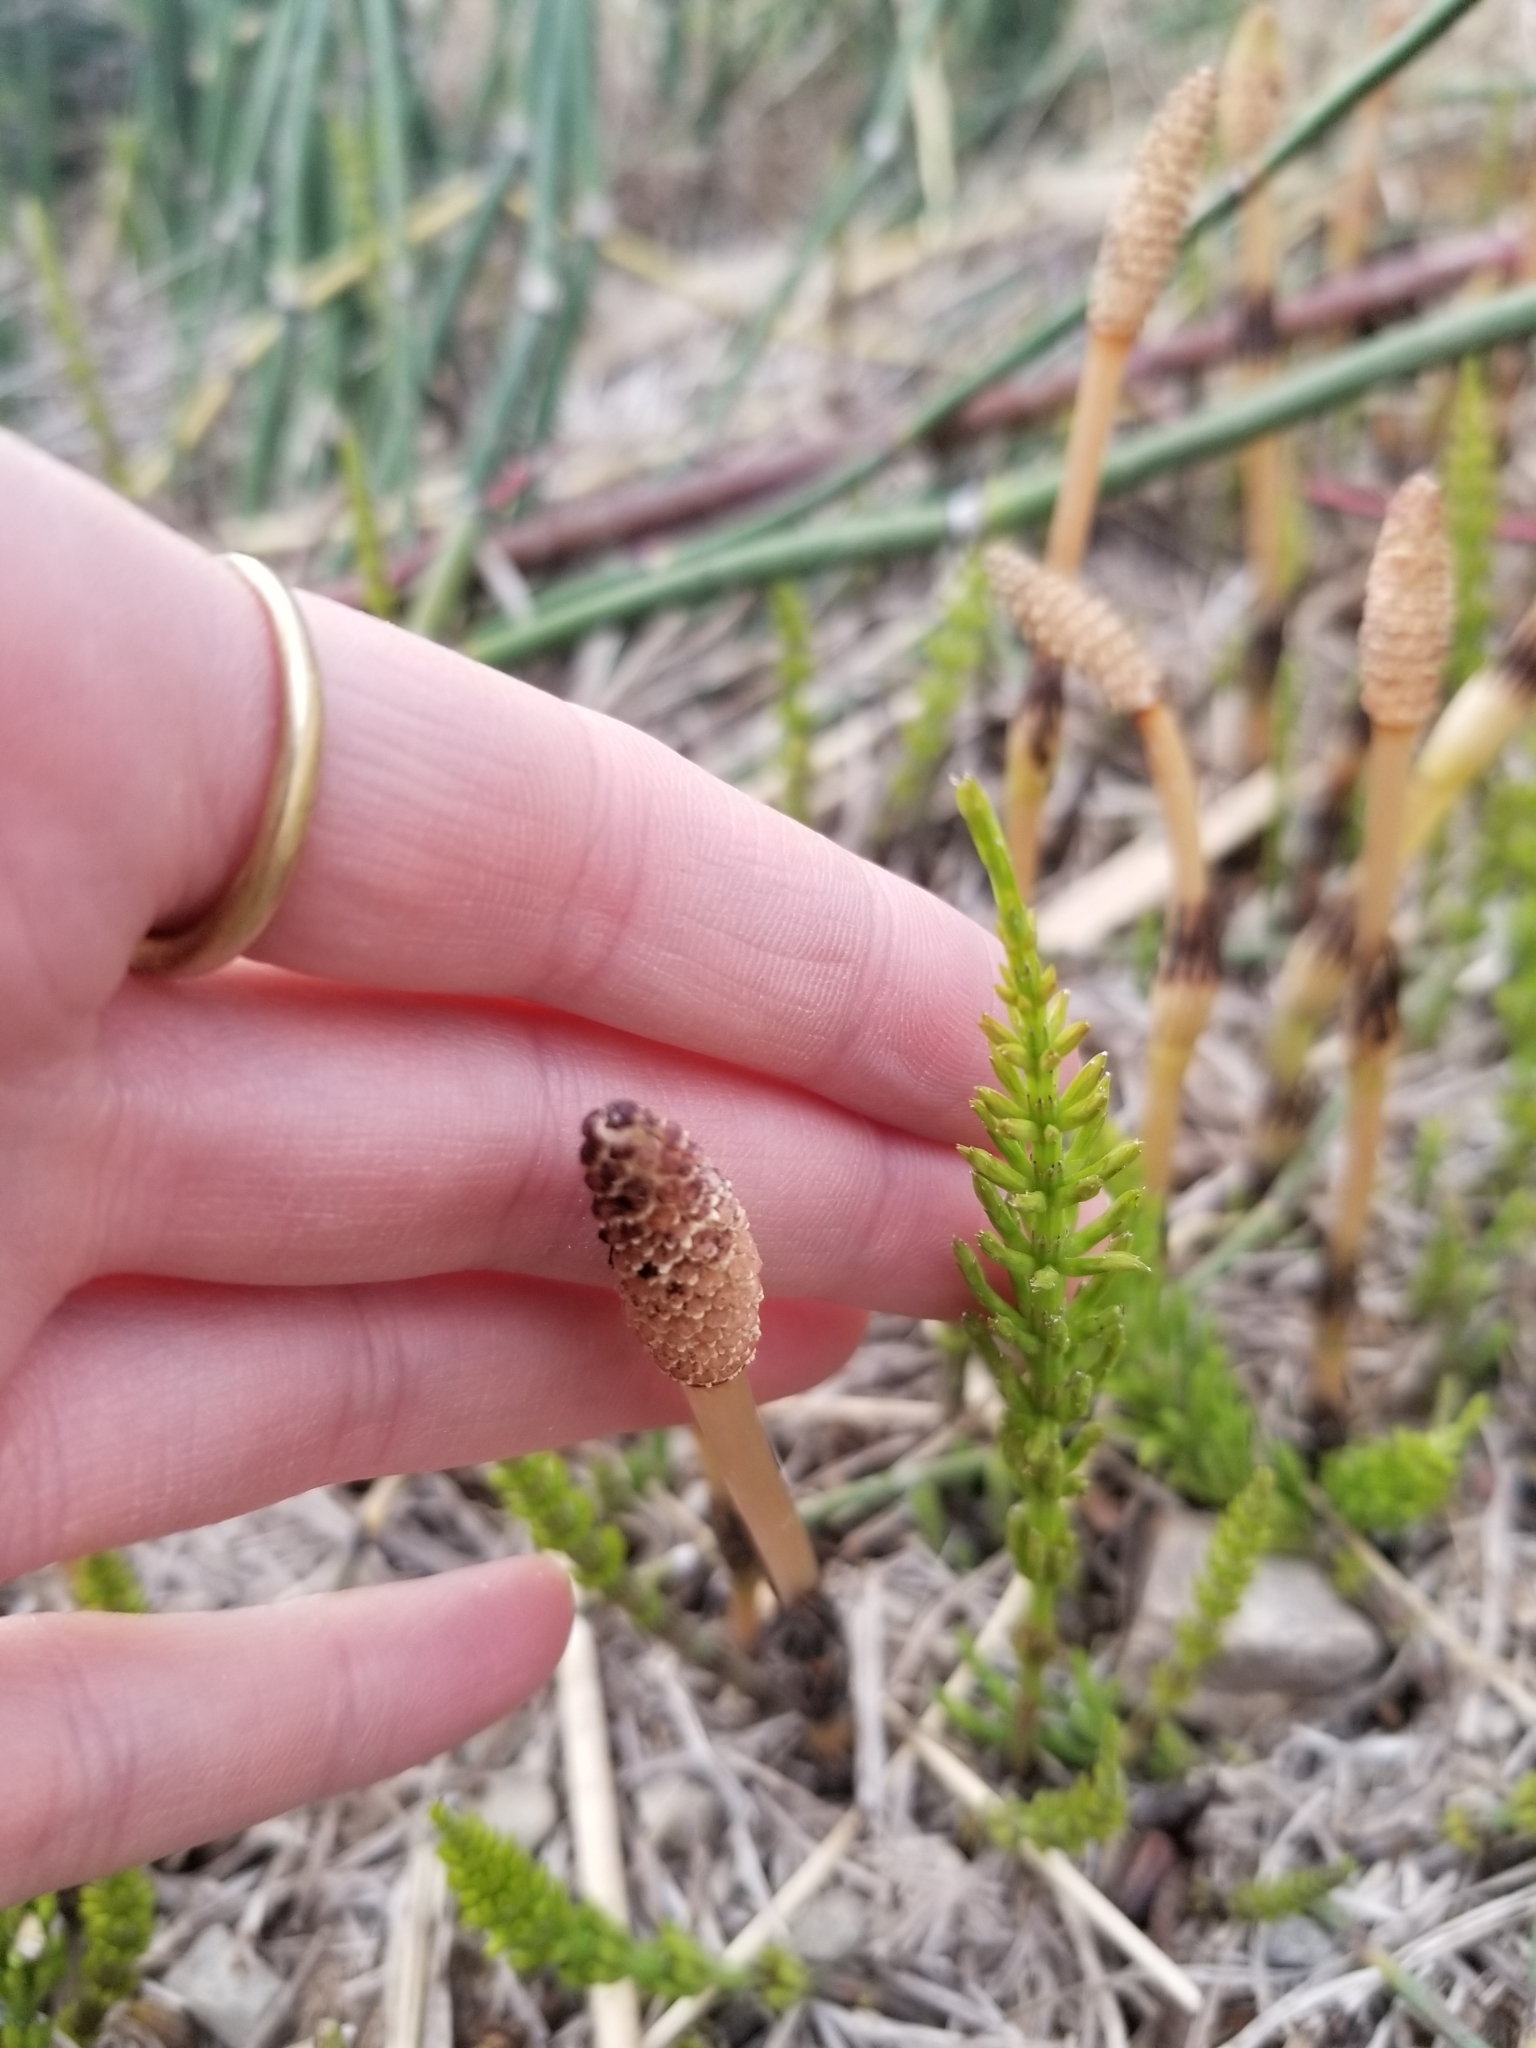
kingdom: Plantae
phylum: Tracheophyta
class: Polypodiopsida
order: Equisetales
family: Equisetaceae
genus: Equisetum
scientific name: Equisetum arvense
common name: Field horsetail
